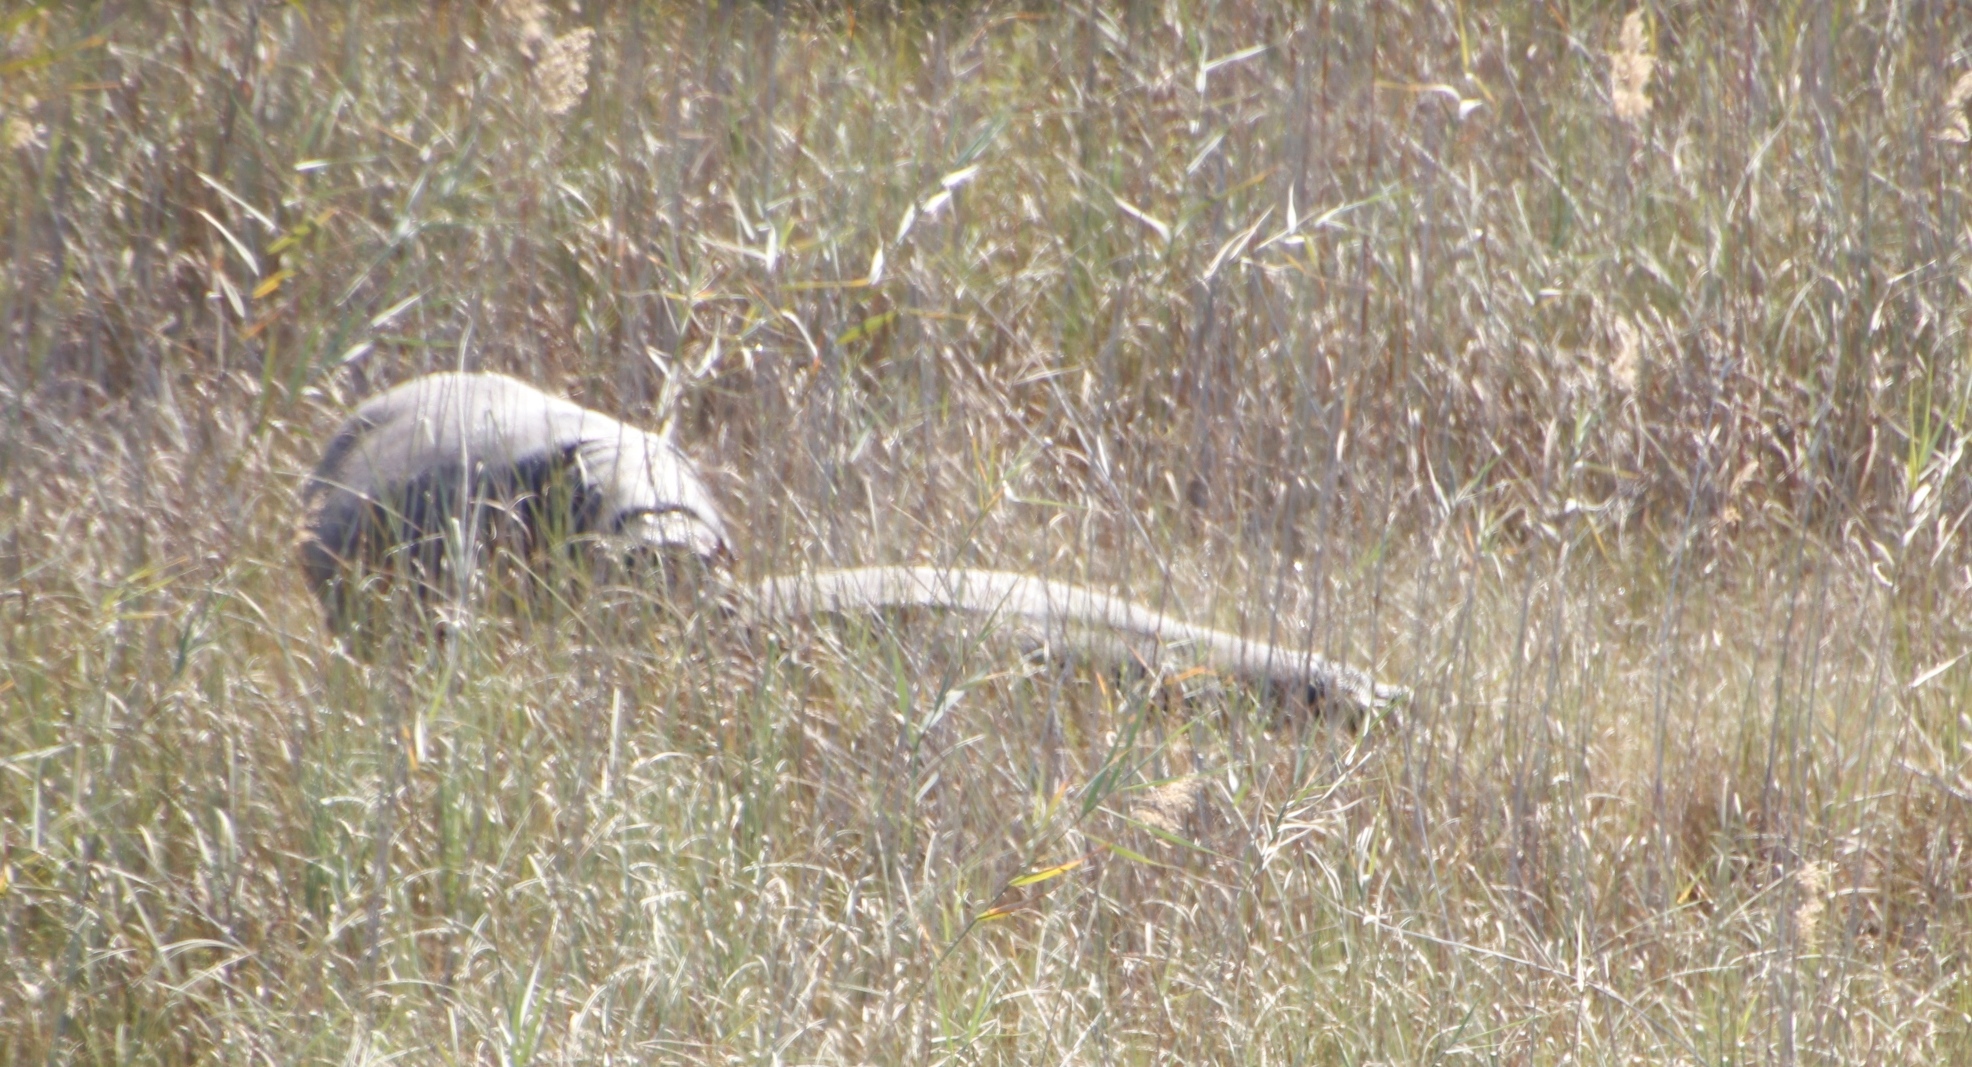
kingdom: Animalia
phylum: Chordata
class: Mammalia
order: Artiodactyla
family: Hippopotamidae
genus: Hippopotamus
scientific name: Hippopotamus amphibius
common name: Common hippopotamus
